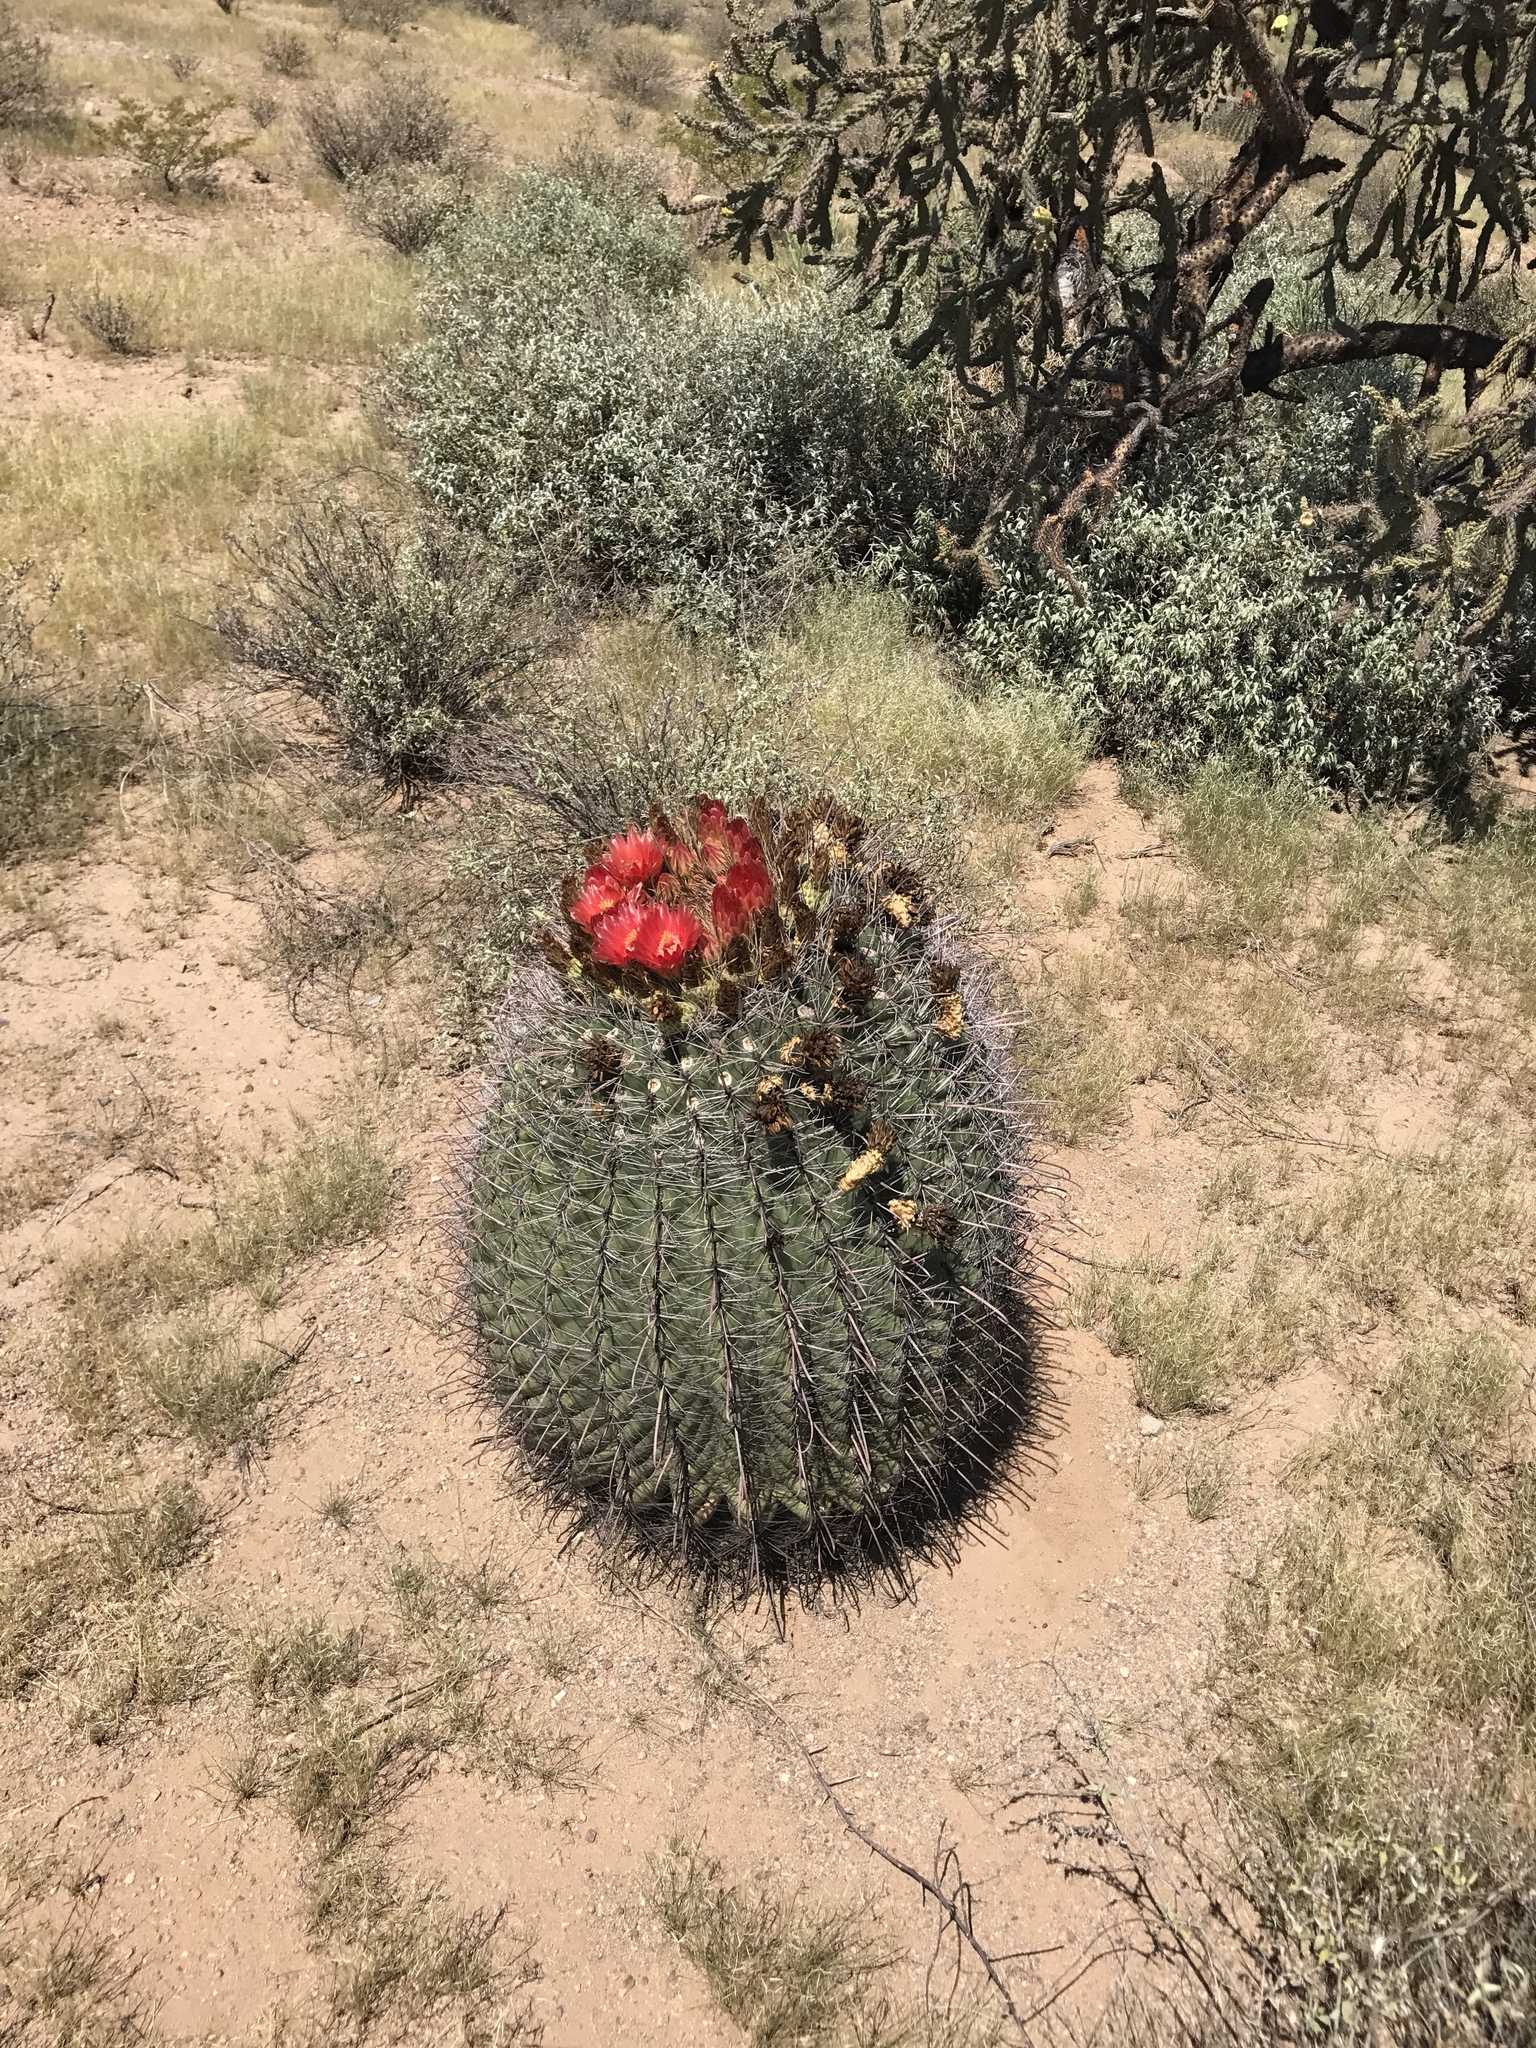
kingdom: Plantae
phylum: Tracheophyta
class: Magnoliopsida
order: Caryophyllales
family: Cactaceae
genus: Ferocactus
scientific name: Ferocactus wislizeni
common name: Candy barrel cactus
